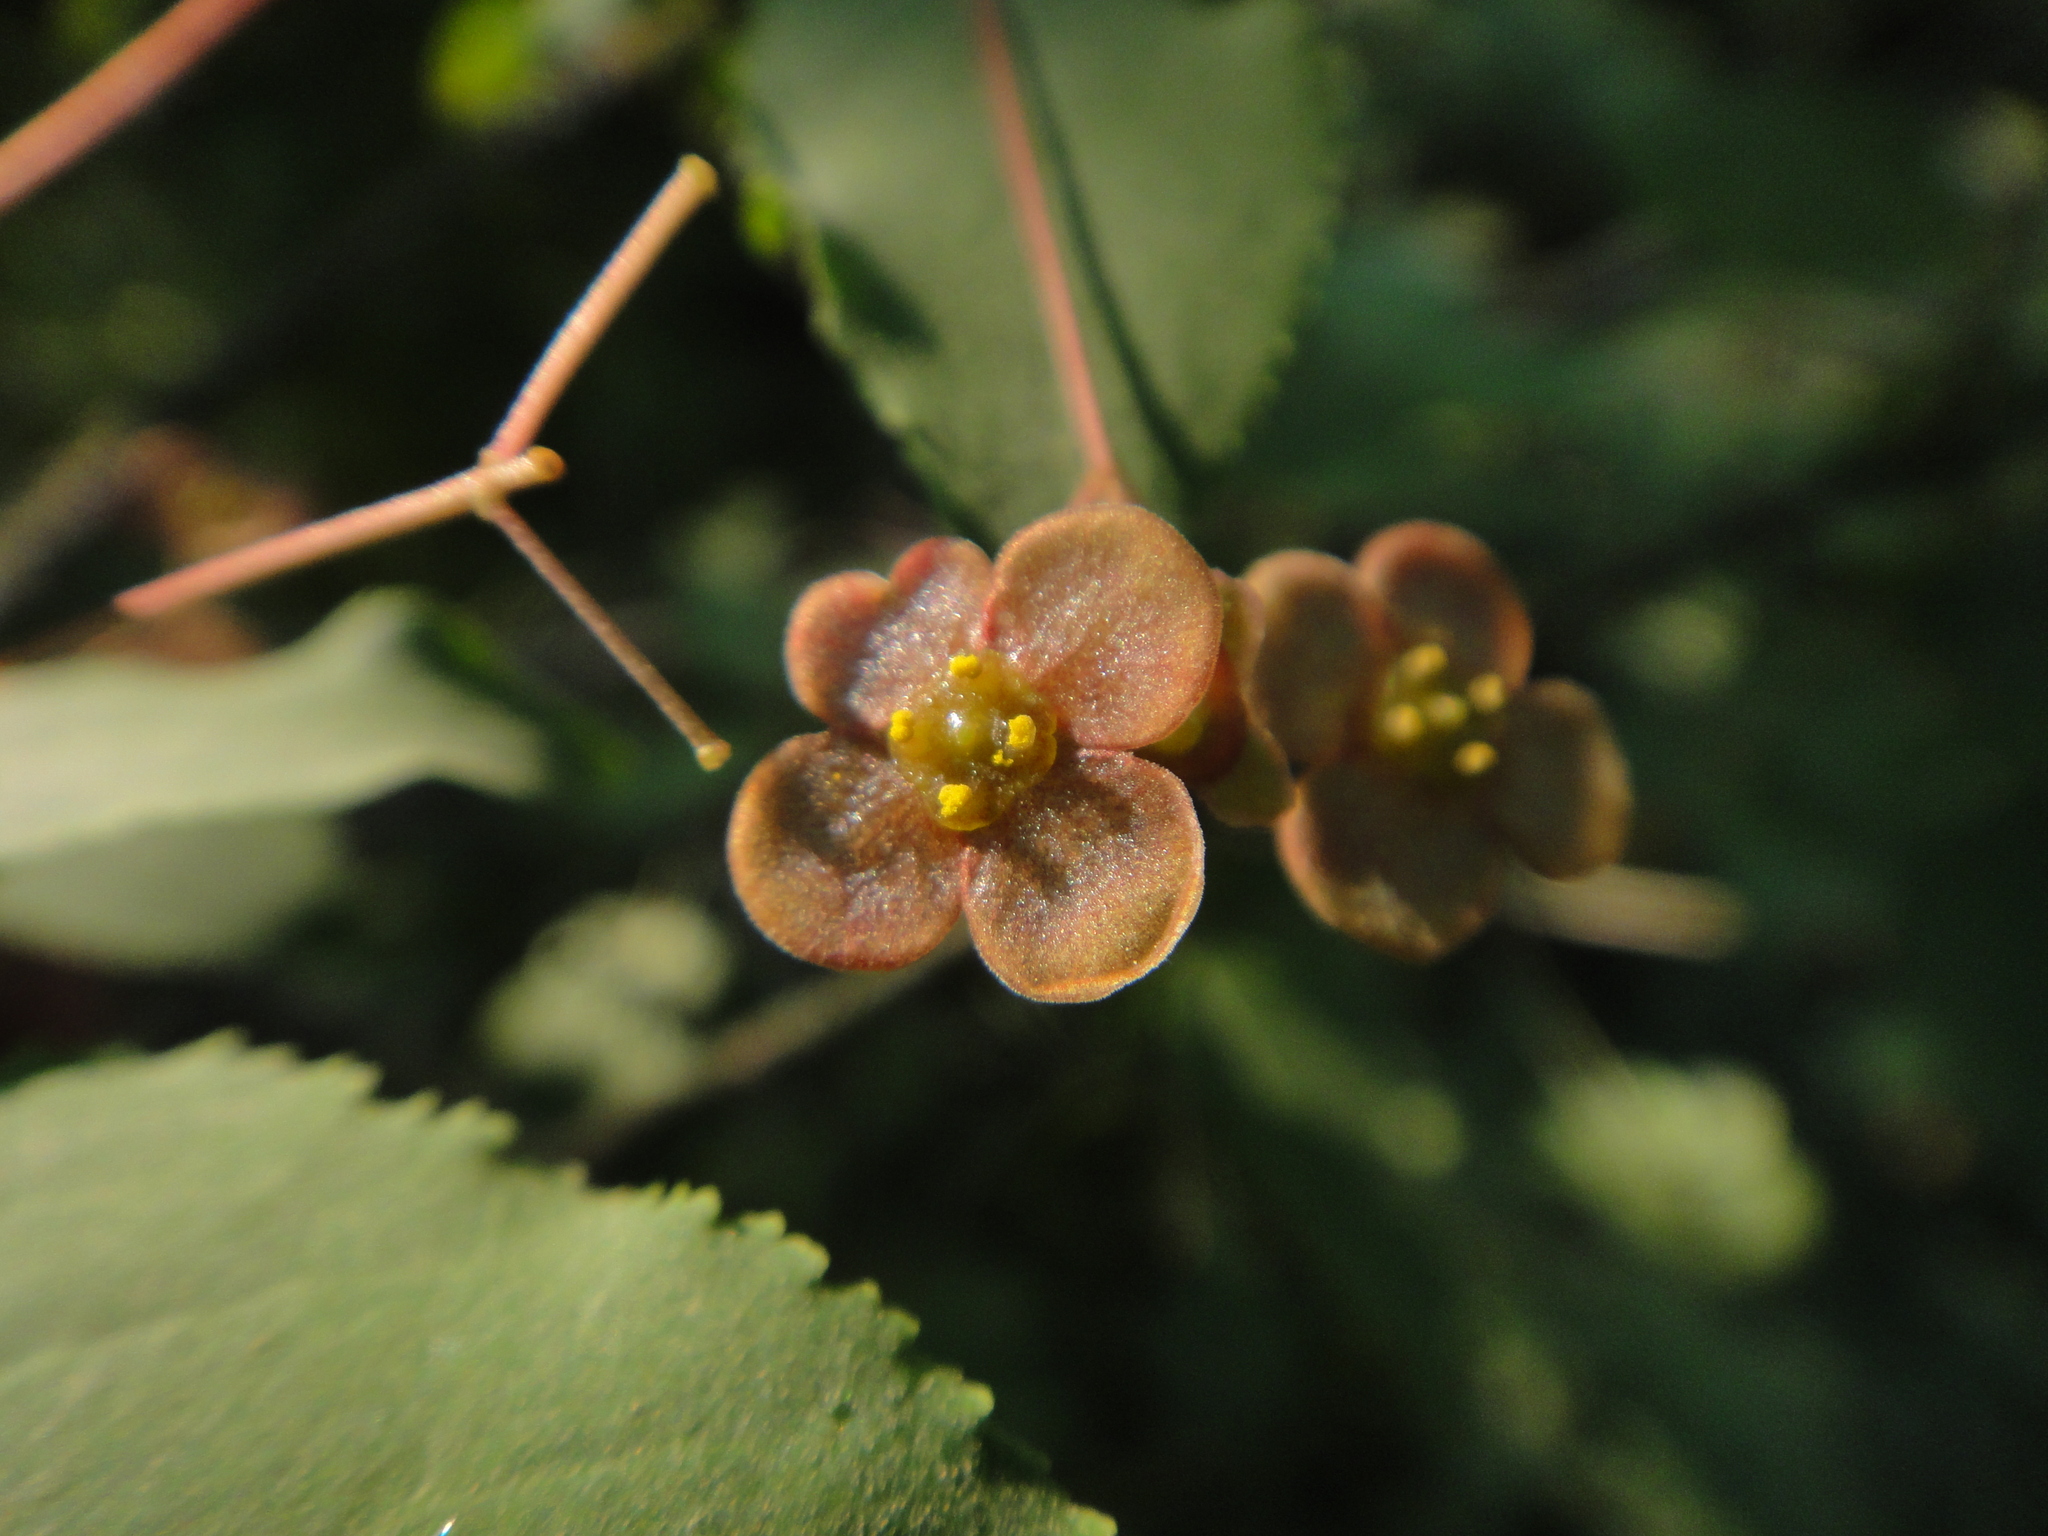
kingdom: Plantae
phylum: Tracheophyta
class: Magnoliopsida
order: Celastrales
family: Celastraceae
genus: Euonymus
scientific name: Euonymus verrucosus
